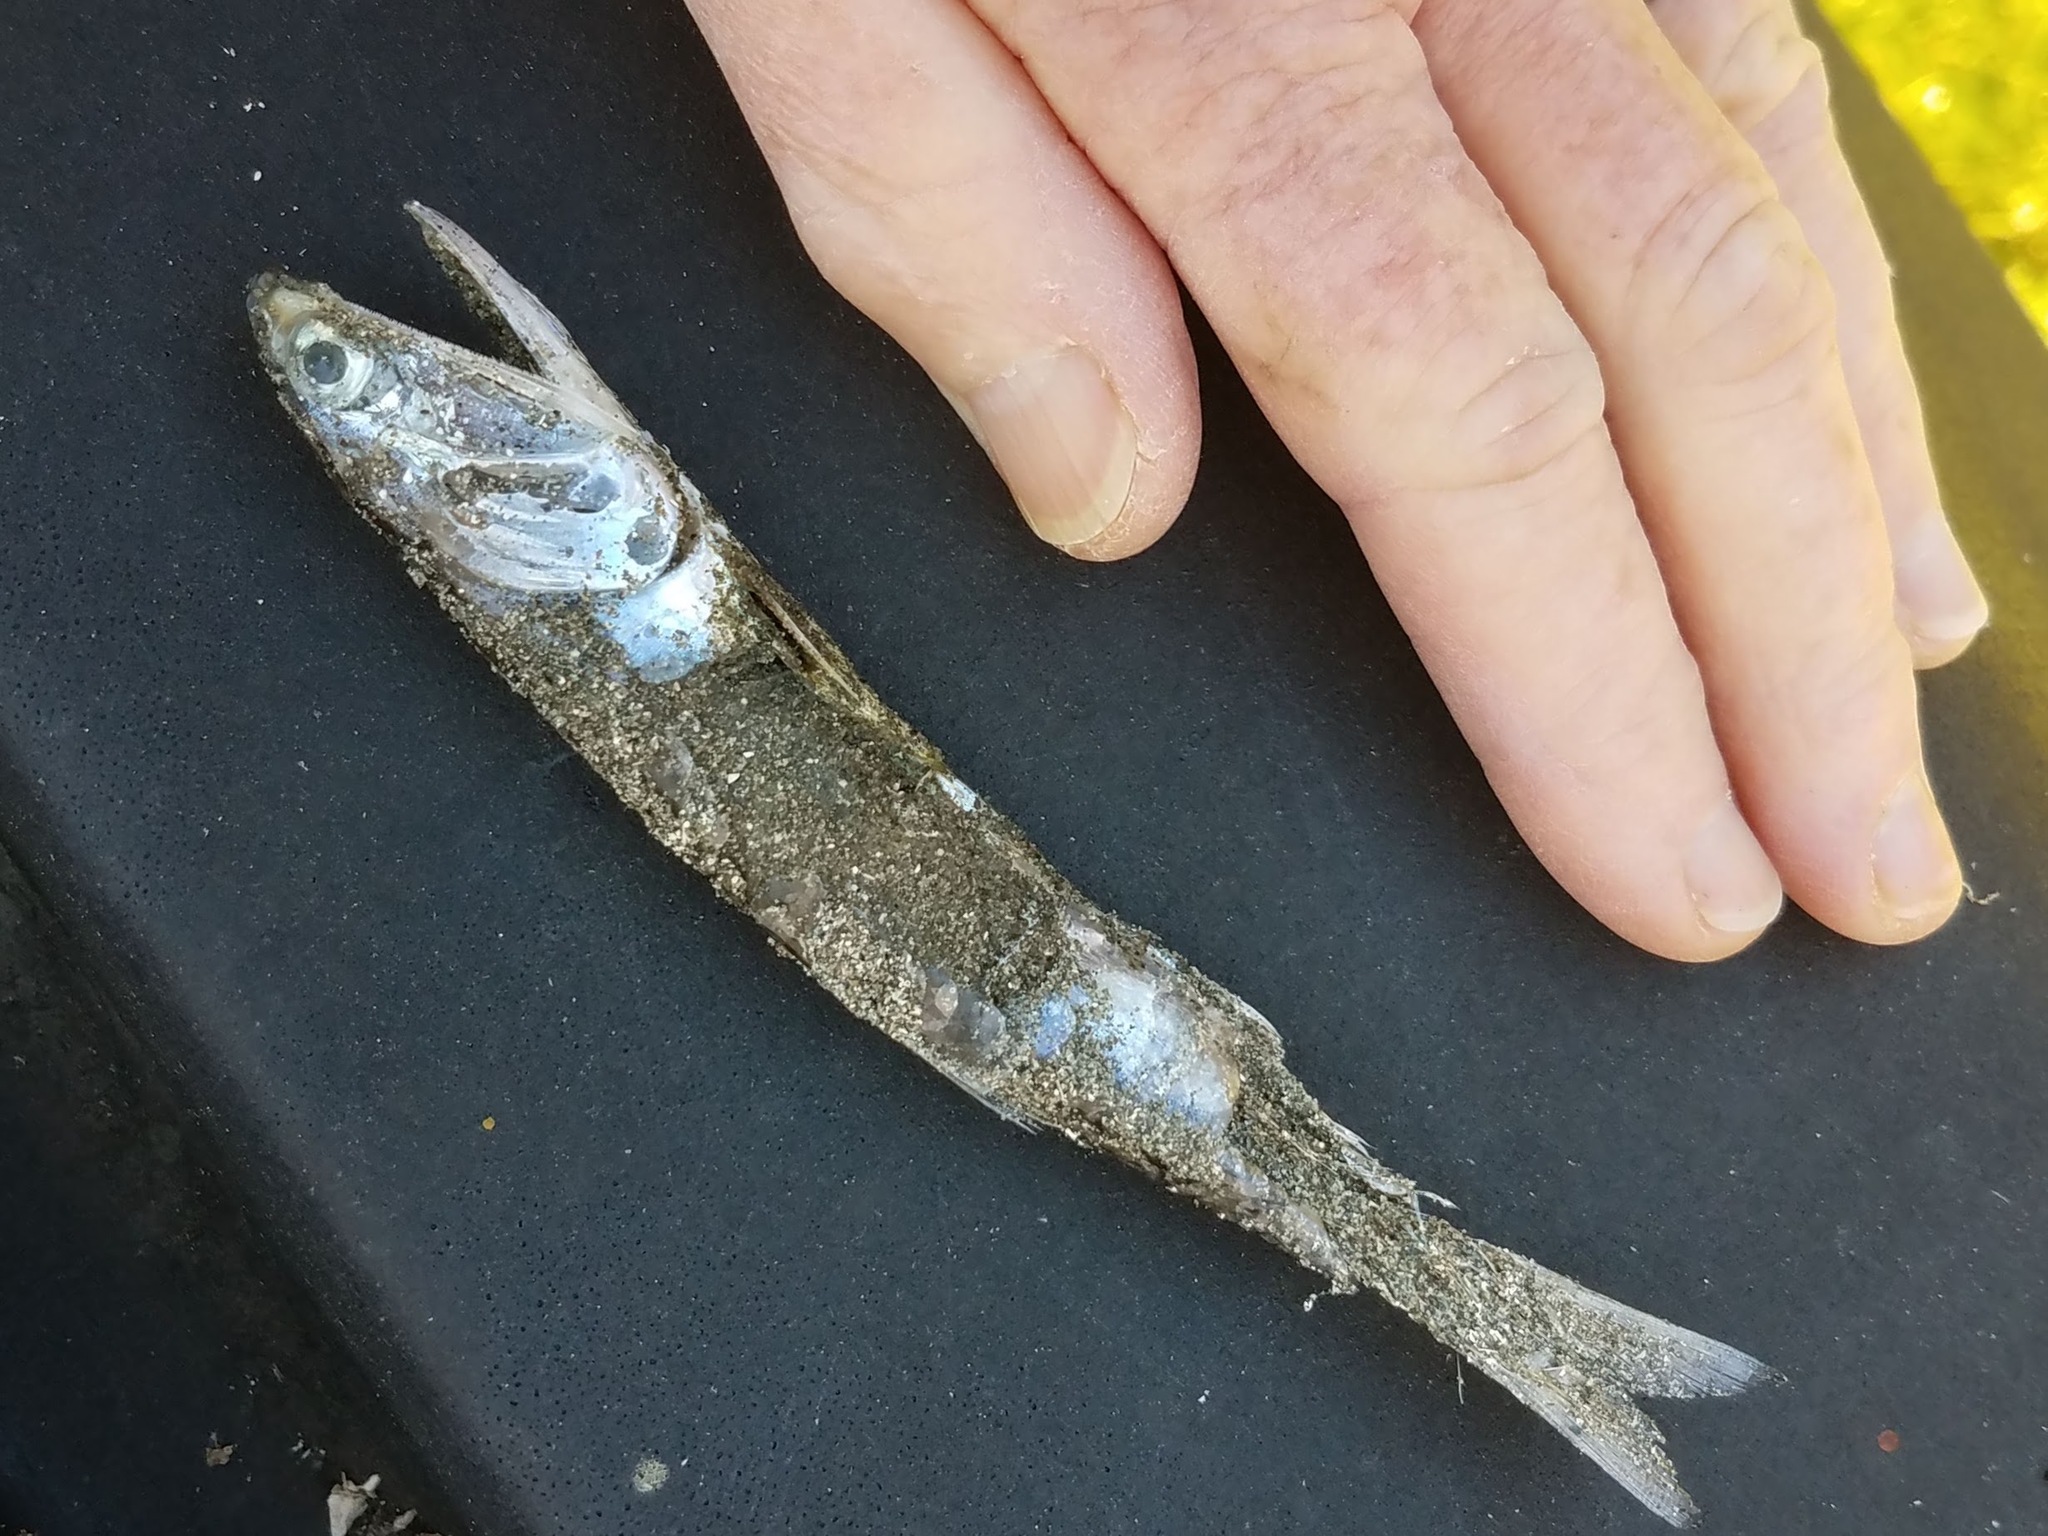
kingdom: Animalia
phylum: Chordata
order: Clupeiformes
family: Engraulidae
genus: Engraulis
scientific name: Engraulis mordax
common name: Northern anchovy
